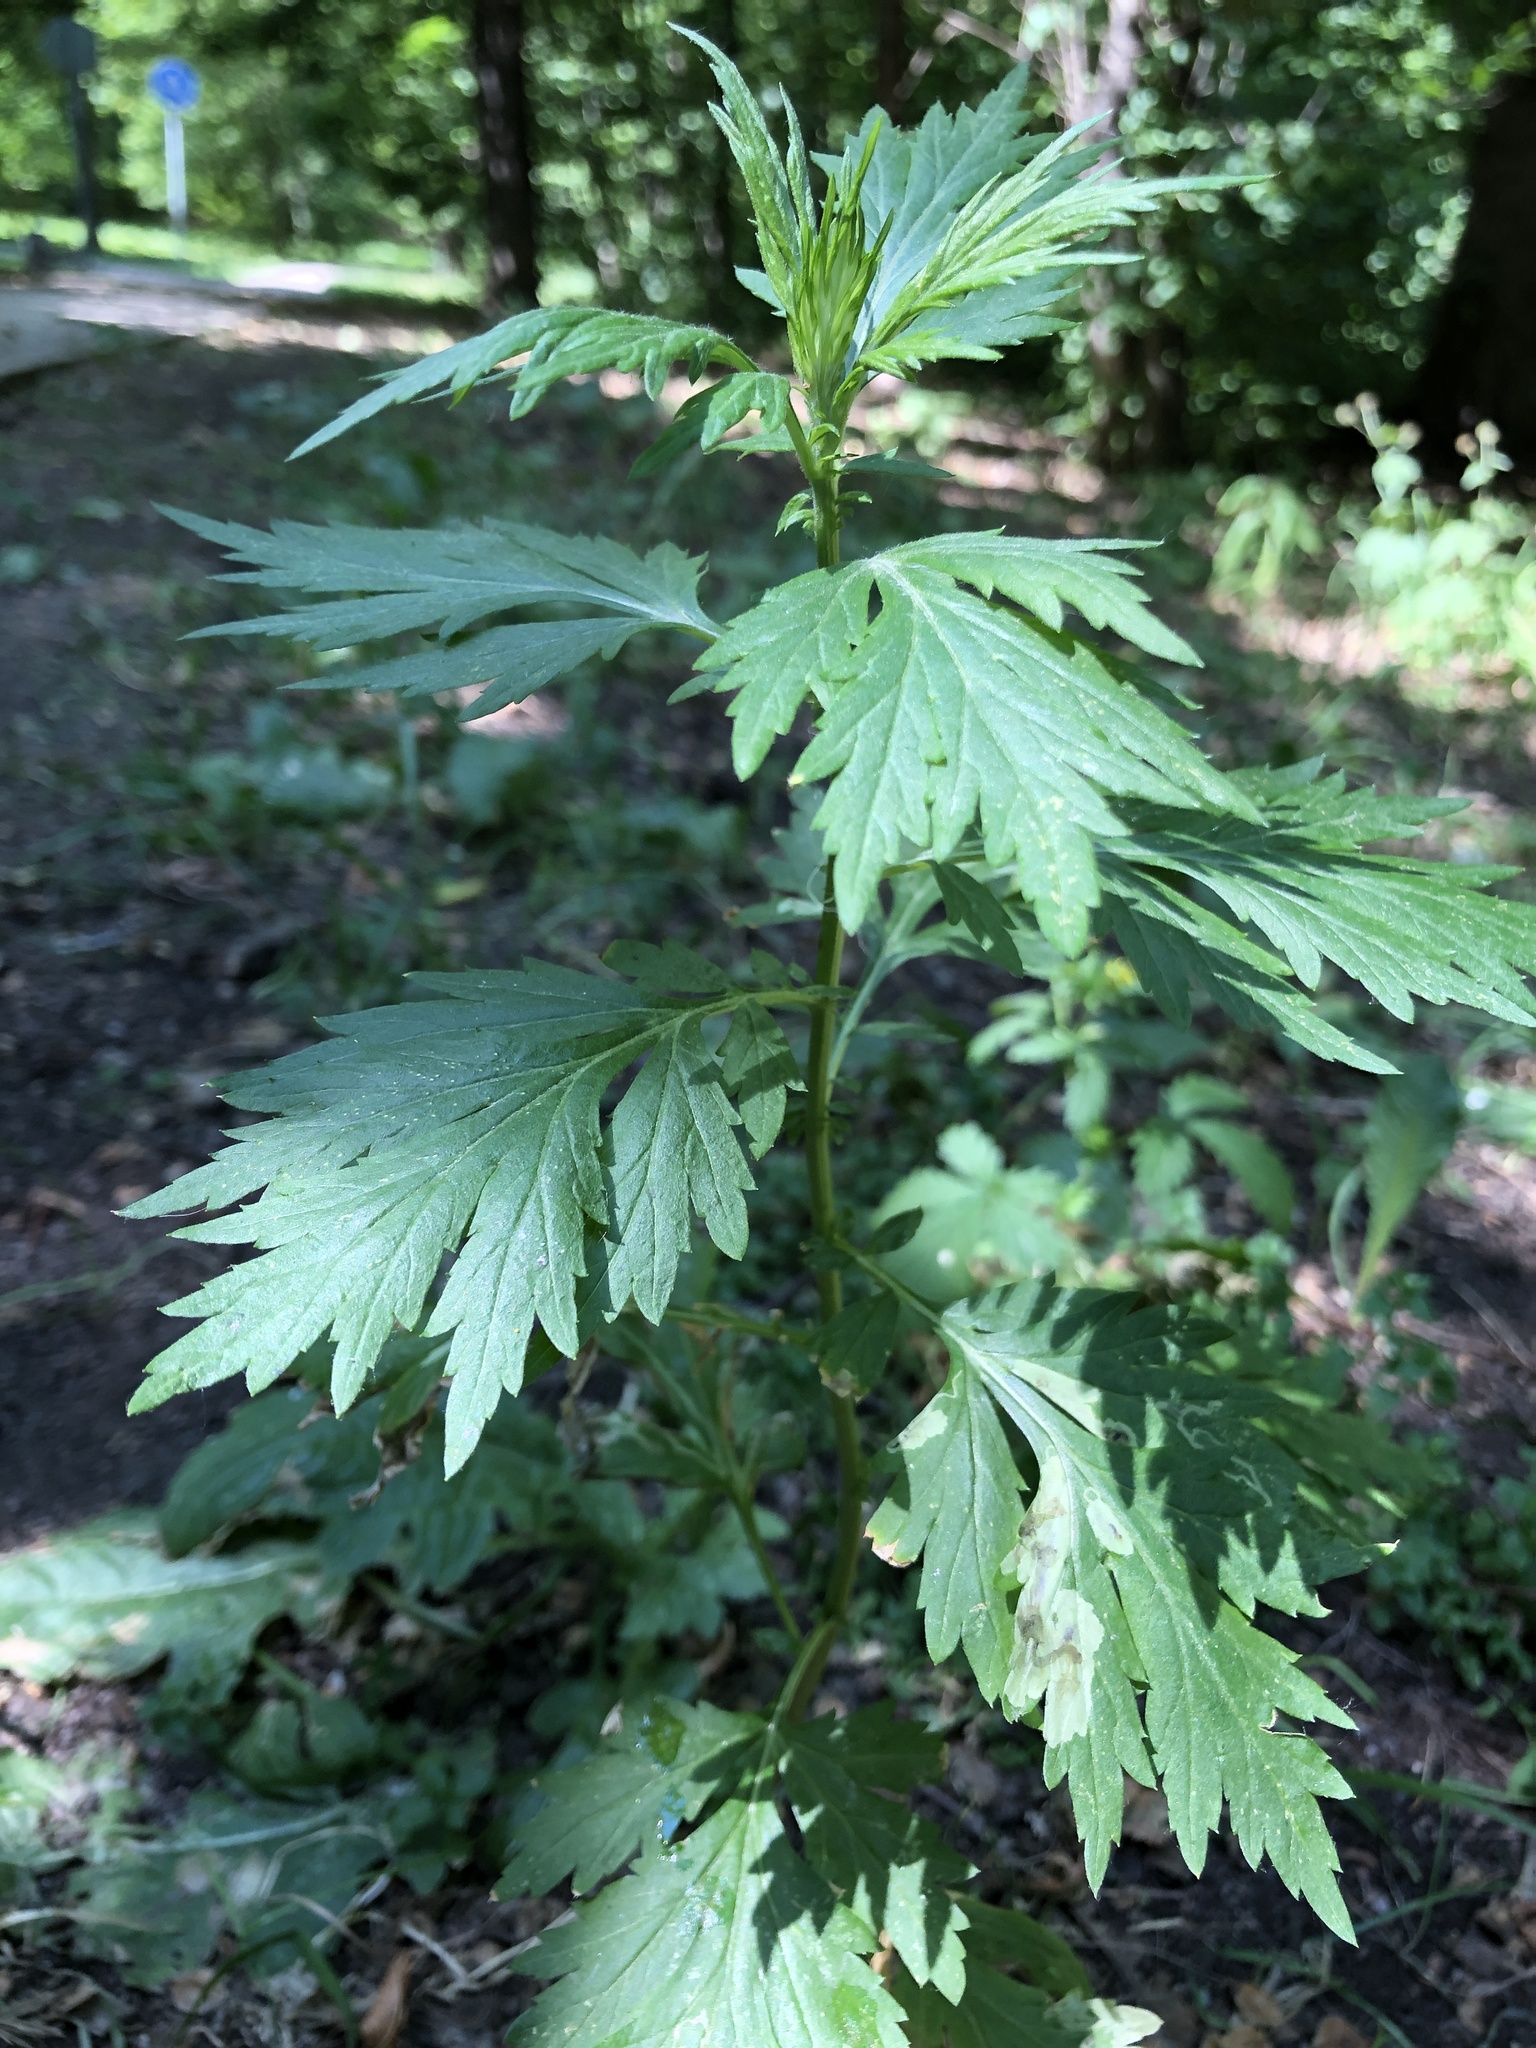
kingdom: Plantae
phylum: Tracheophyta
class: Magnoliopsida
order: Asterales
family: Asteraceae
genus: Artemisia
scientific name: Artemisia vulgaris
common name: Mugwort
